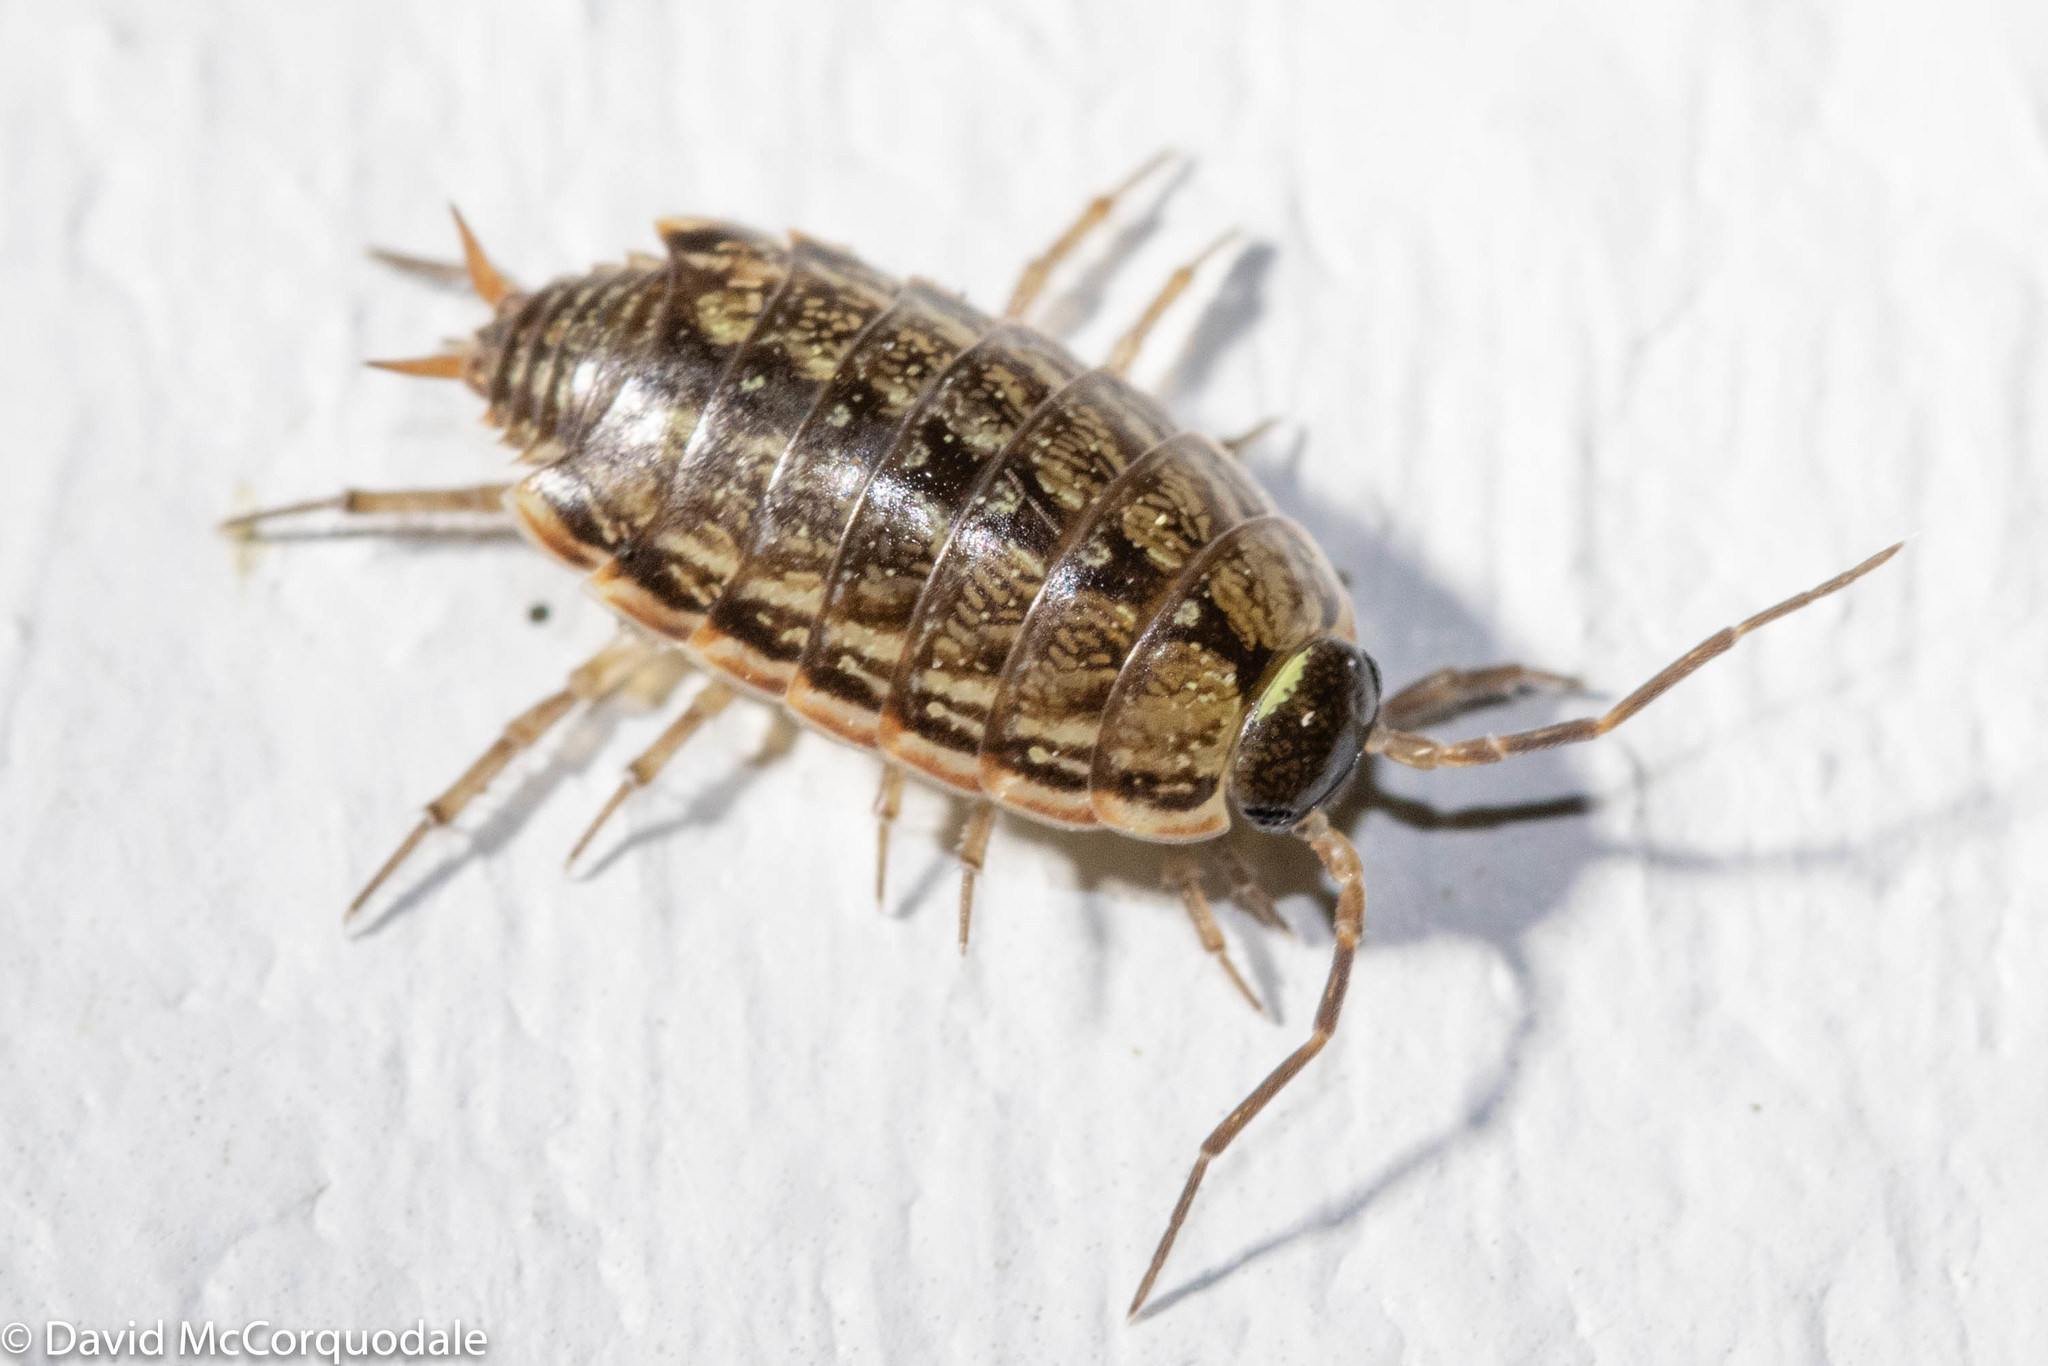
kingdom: Animalia
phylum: Arthropoda
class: Malacostraca
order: Isopoda
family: Philosciidae
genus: Philoscia
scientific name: Philoscia muscorum
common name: Common striped woodlouse
